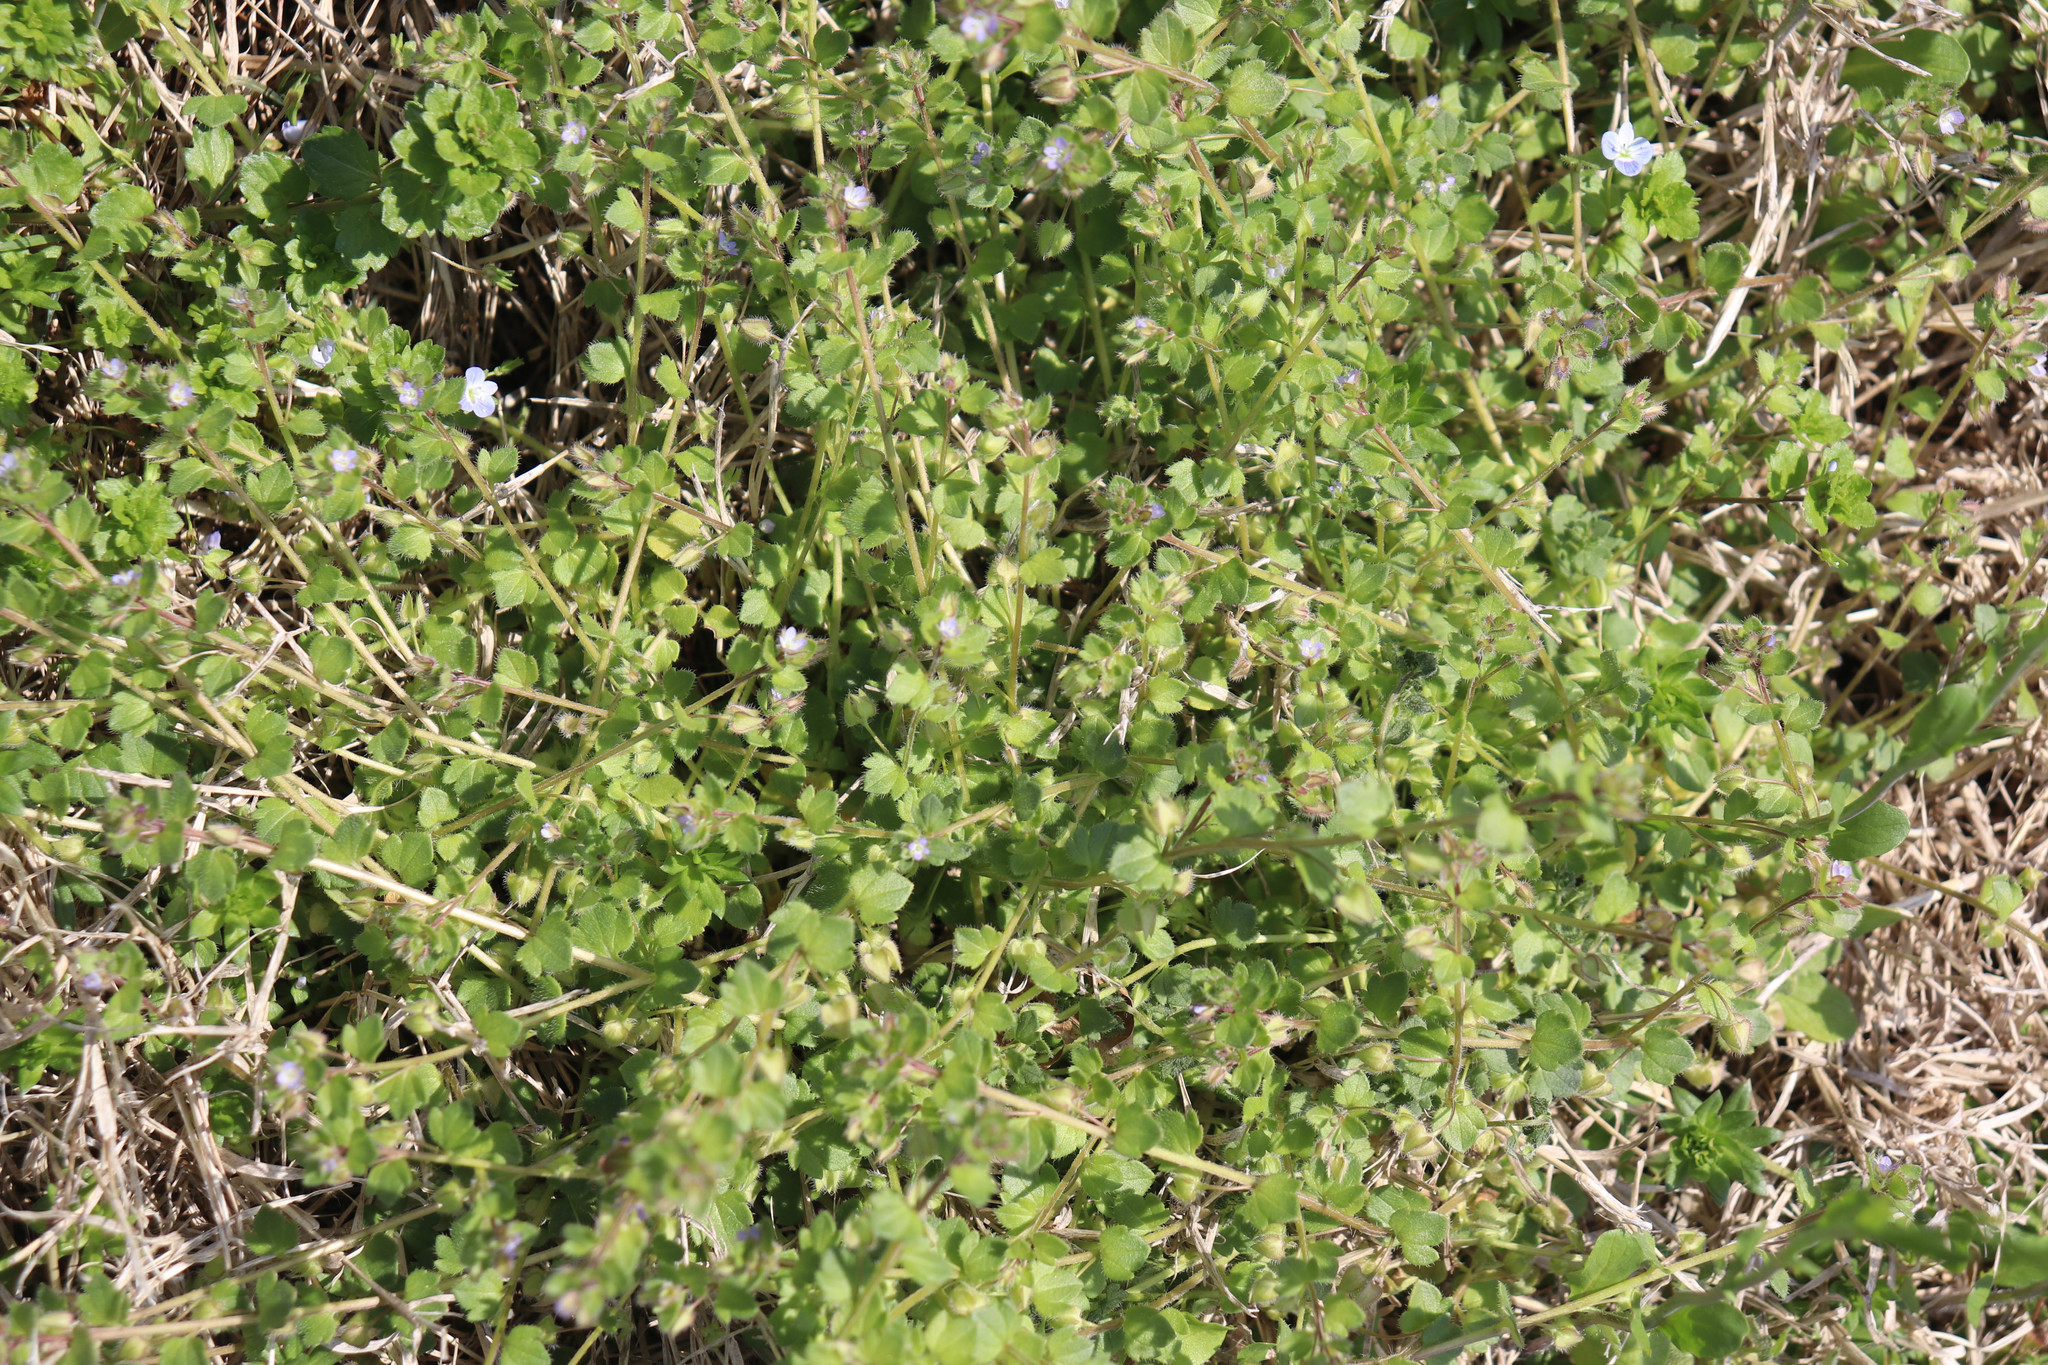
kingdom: Plantae
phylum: Tracheophyta
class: Magnoliopsida
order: Lamiales
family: Plantaginaceae
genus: Veronica
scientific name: Veronica hederifolia
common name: Ivy-leaved speedwell
